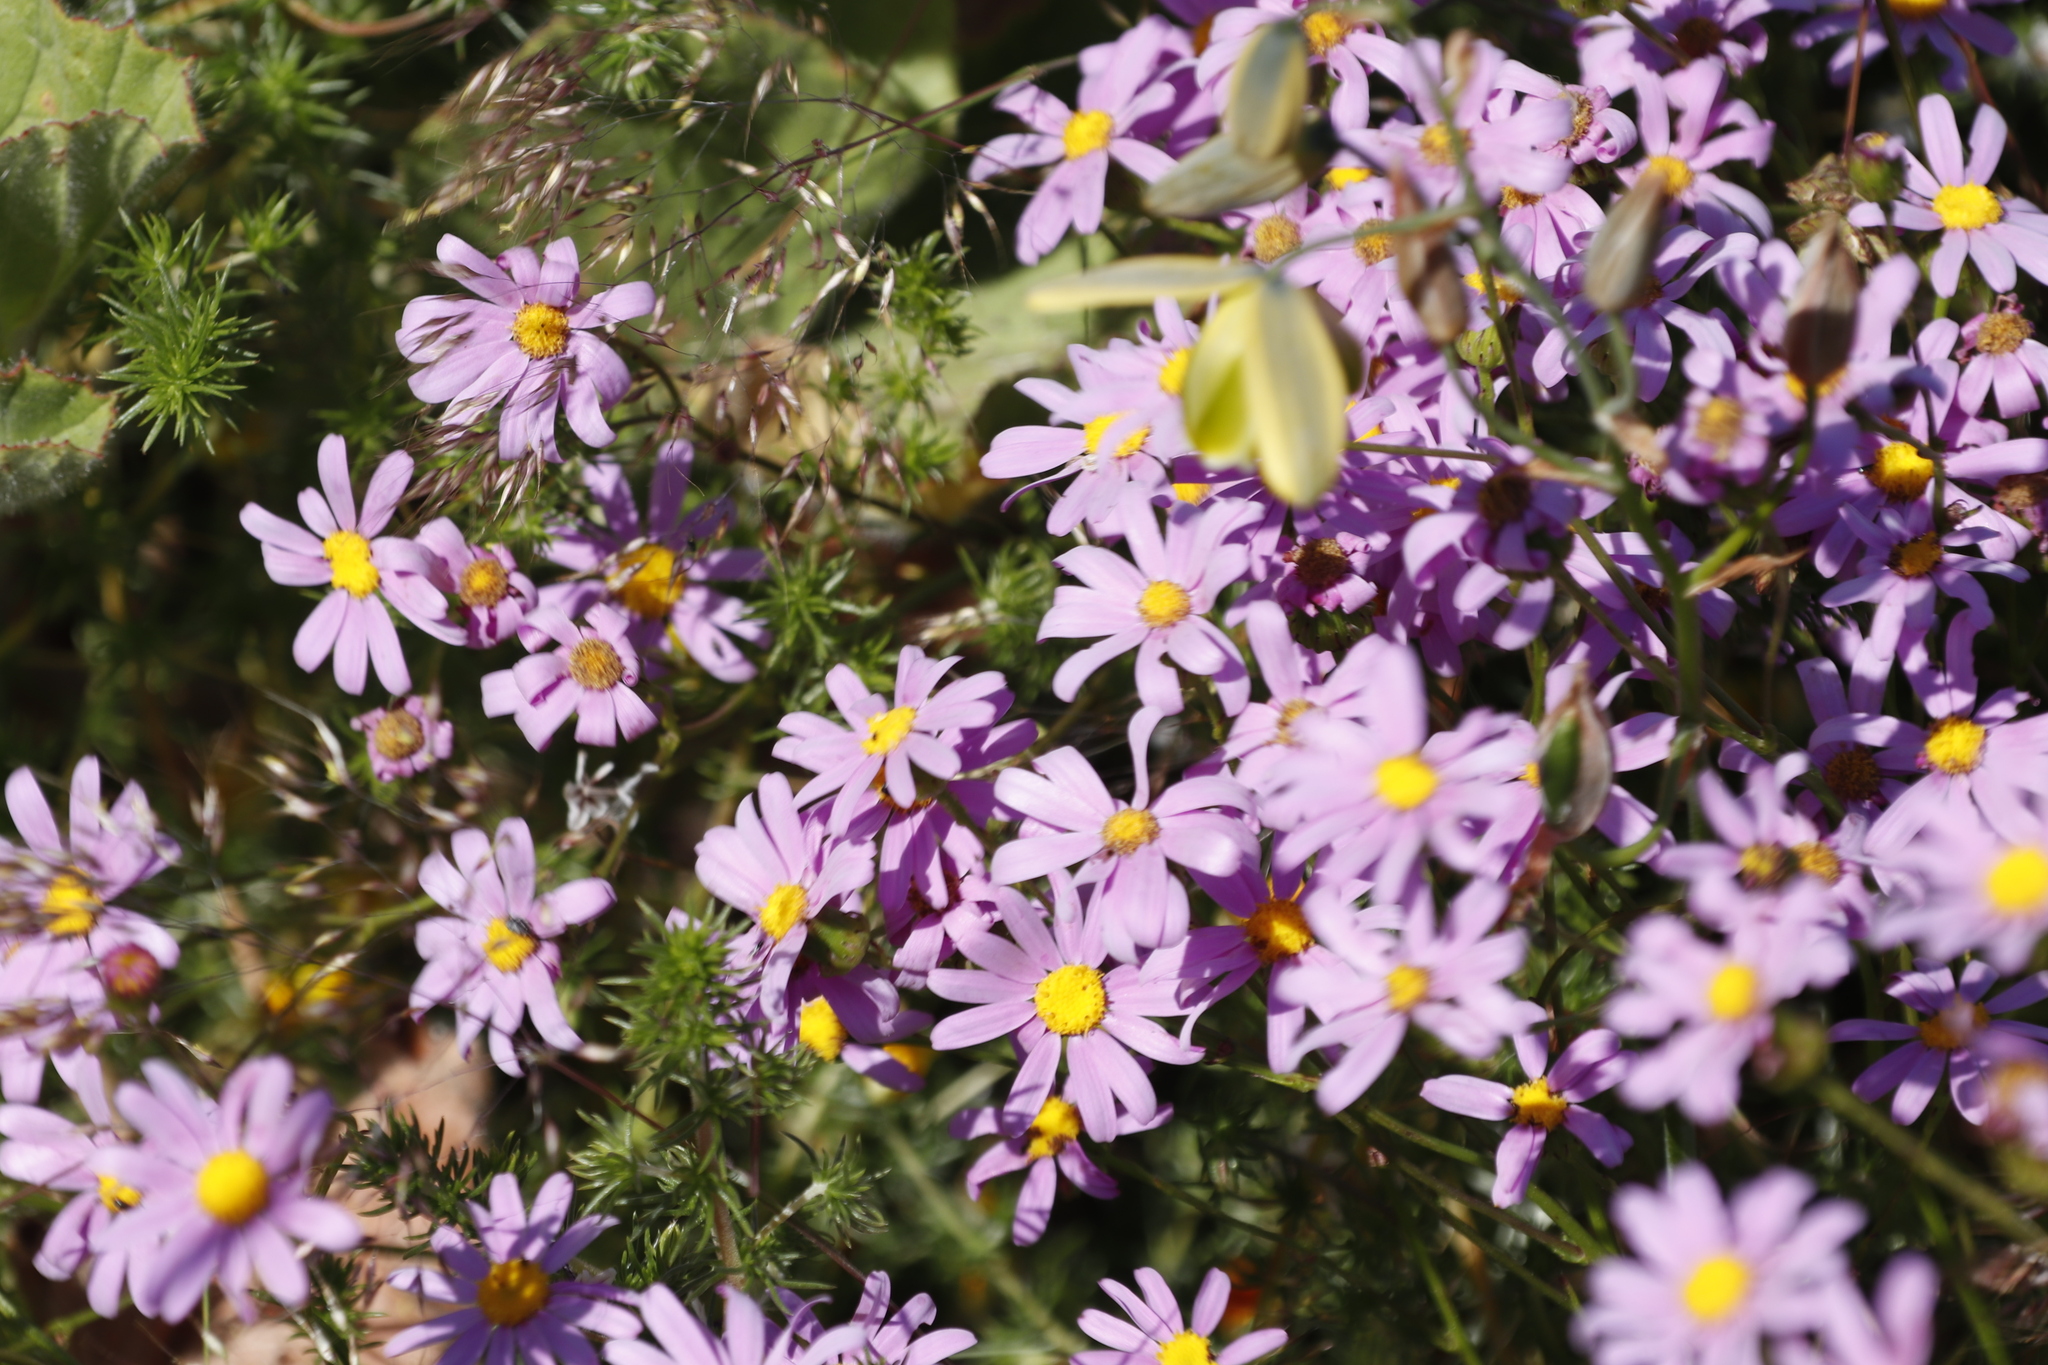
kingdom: Plantae
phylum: Tracheophyta
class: Magnoliopsida
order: Asterales
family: Asteraceae
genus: Senecio
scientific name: Senecio umbellatus
